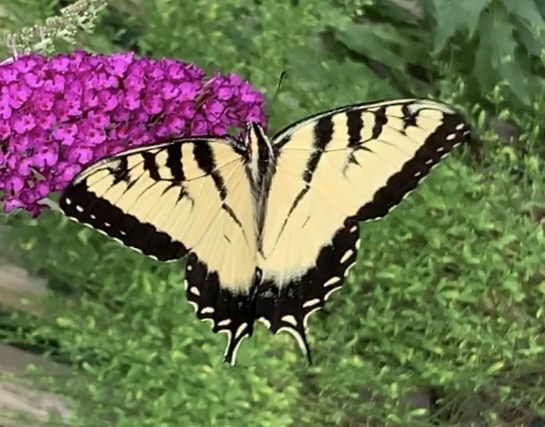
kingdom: Animalia
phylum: Arthropoda
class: Insecta
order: Lepidoptera
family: Papilionidae
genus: Papilio
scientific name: Papilio glaucus
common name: Tiger swallowtail
